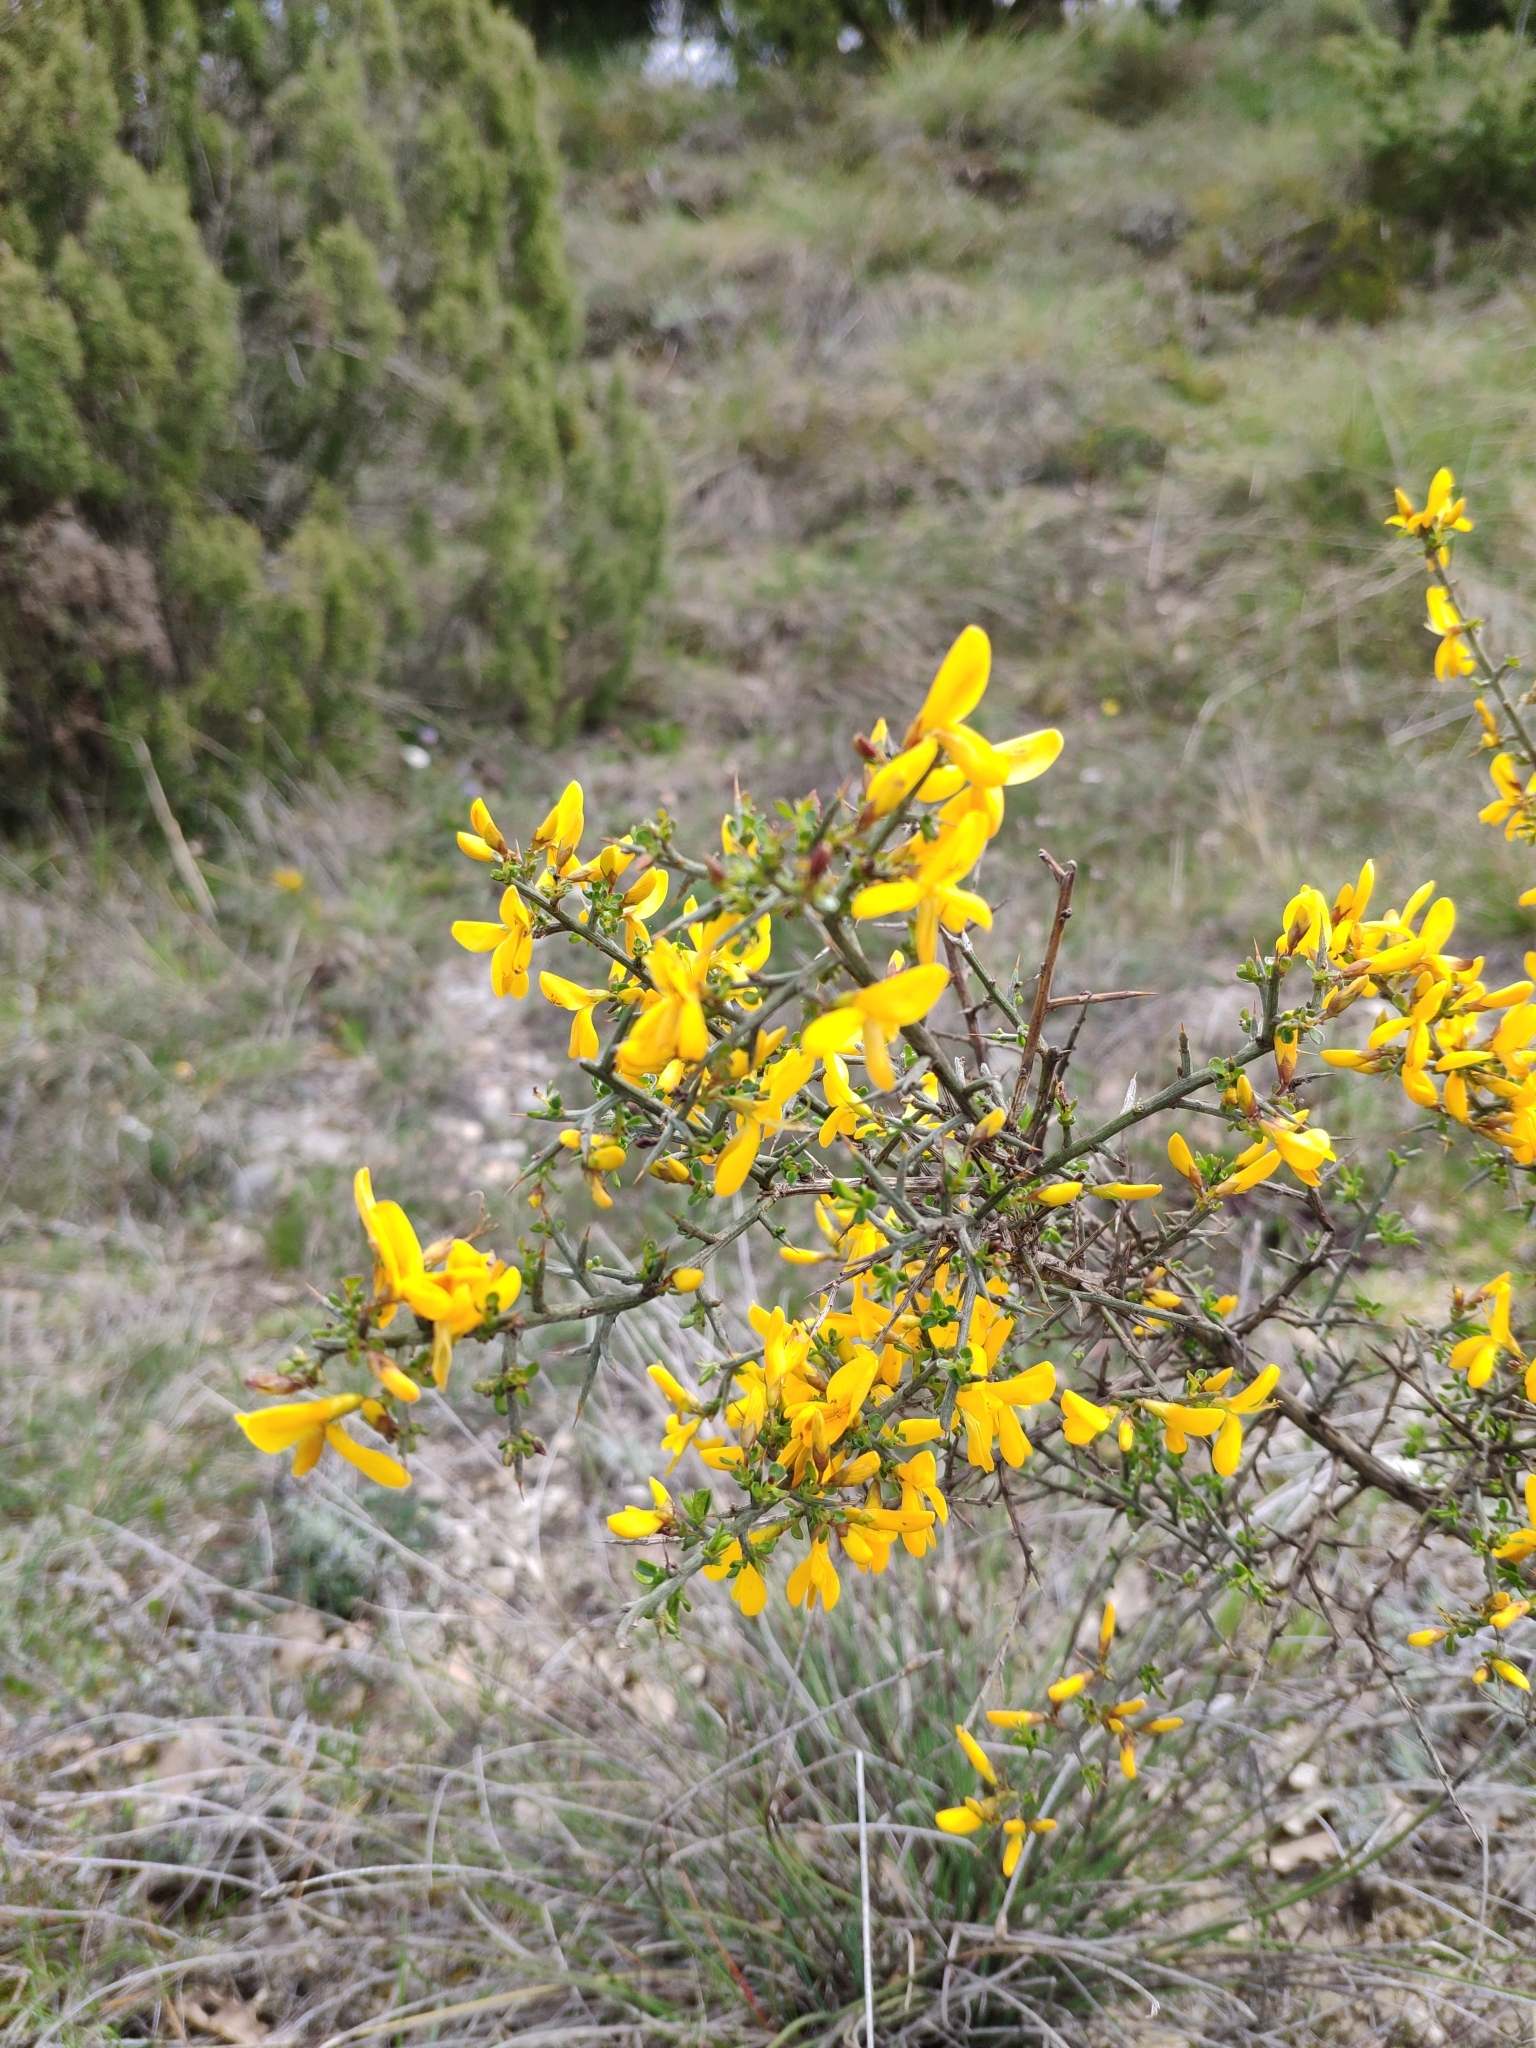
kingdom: Plantae
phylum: Tracheophyta
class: Magnoliopsida
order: Fabales
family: Fabaceae
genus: Genista
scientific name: Genista scorpius
